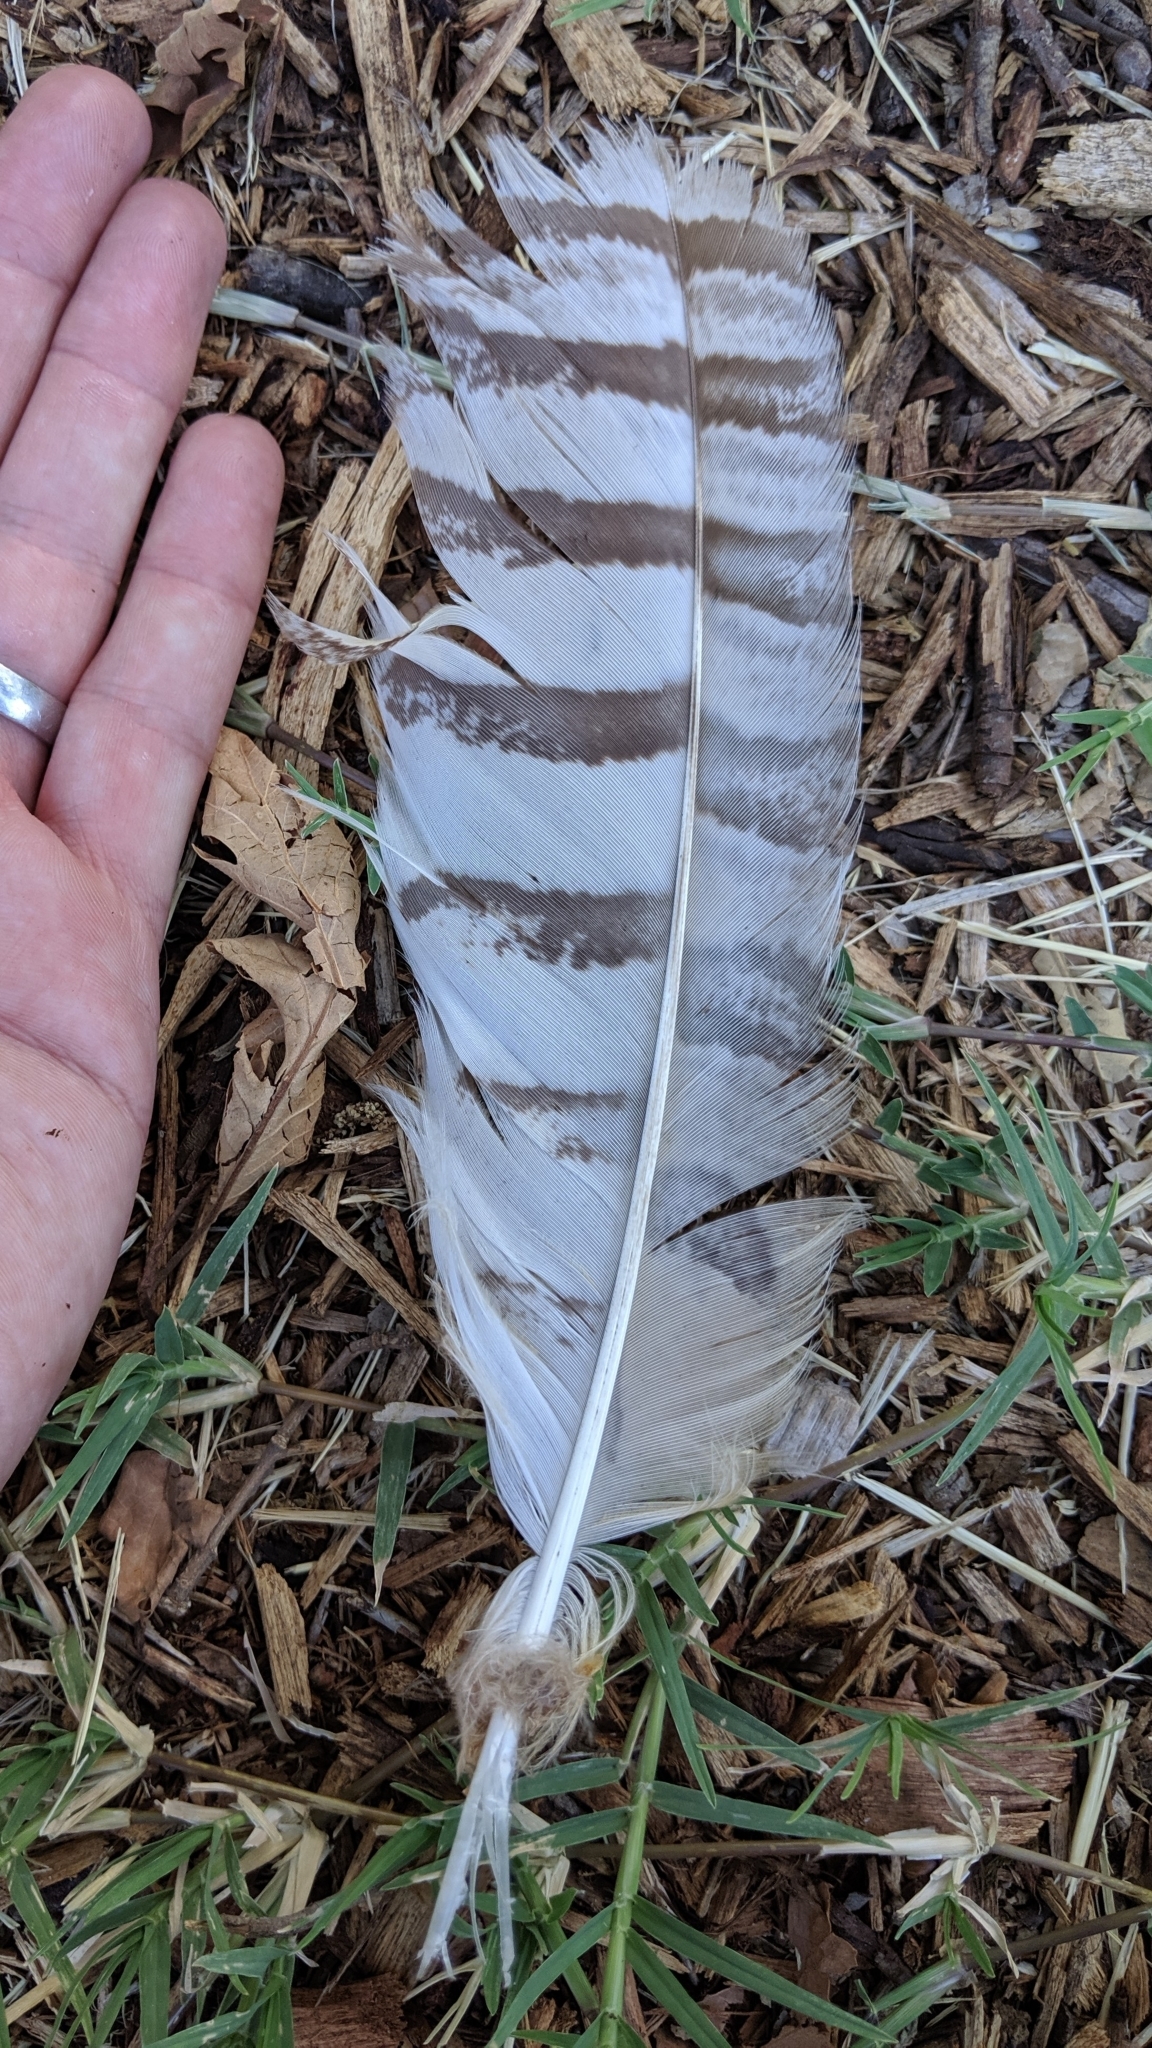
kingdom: Animalia
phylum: Chordata
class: Aves
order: Strigiformes
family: Strigidae
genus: Bubo
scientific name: Bubo virginianus
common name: Great horned owl
